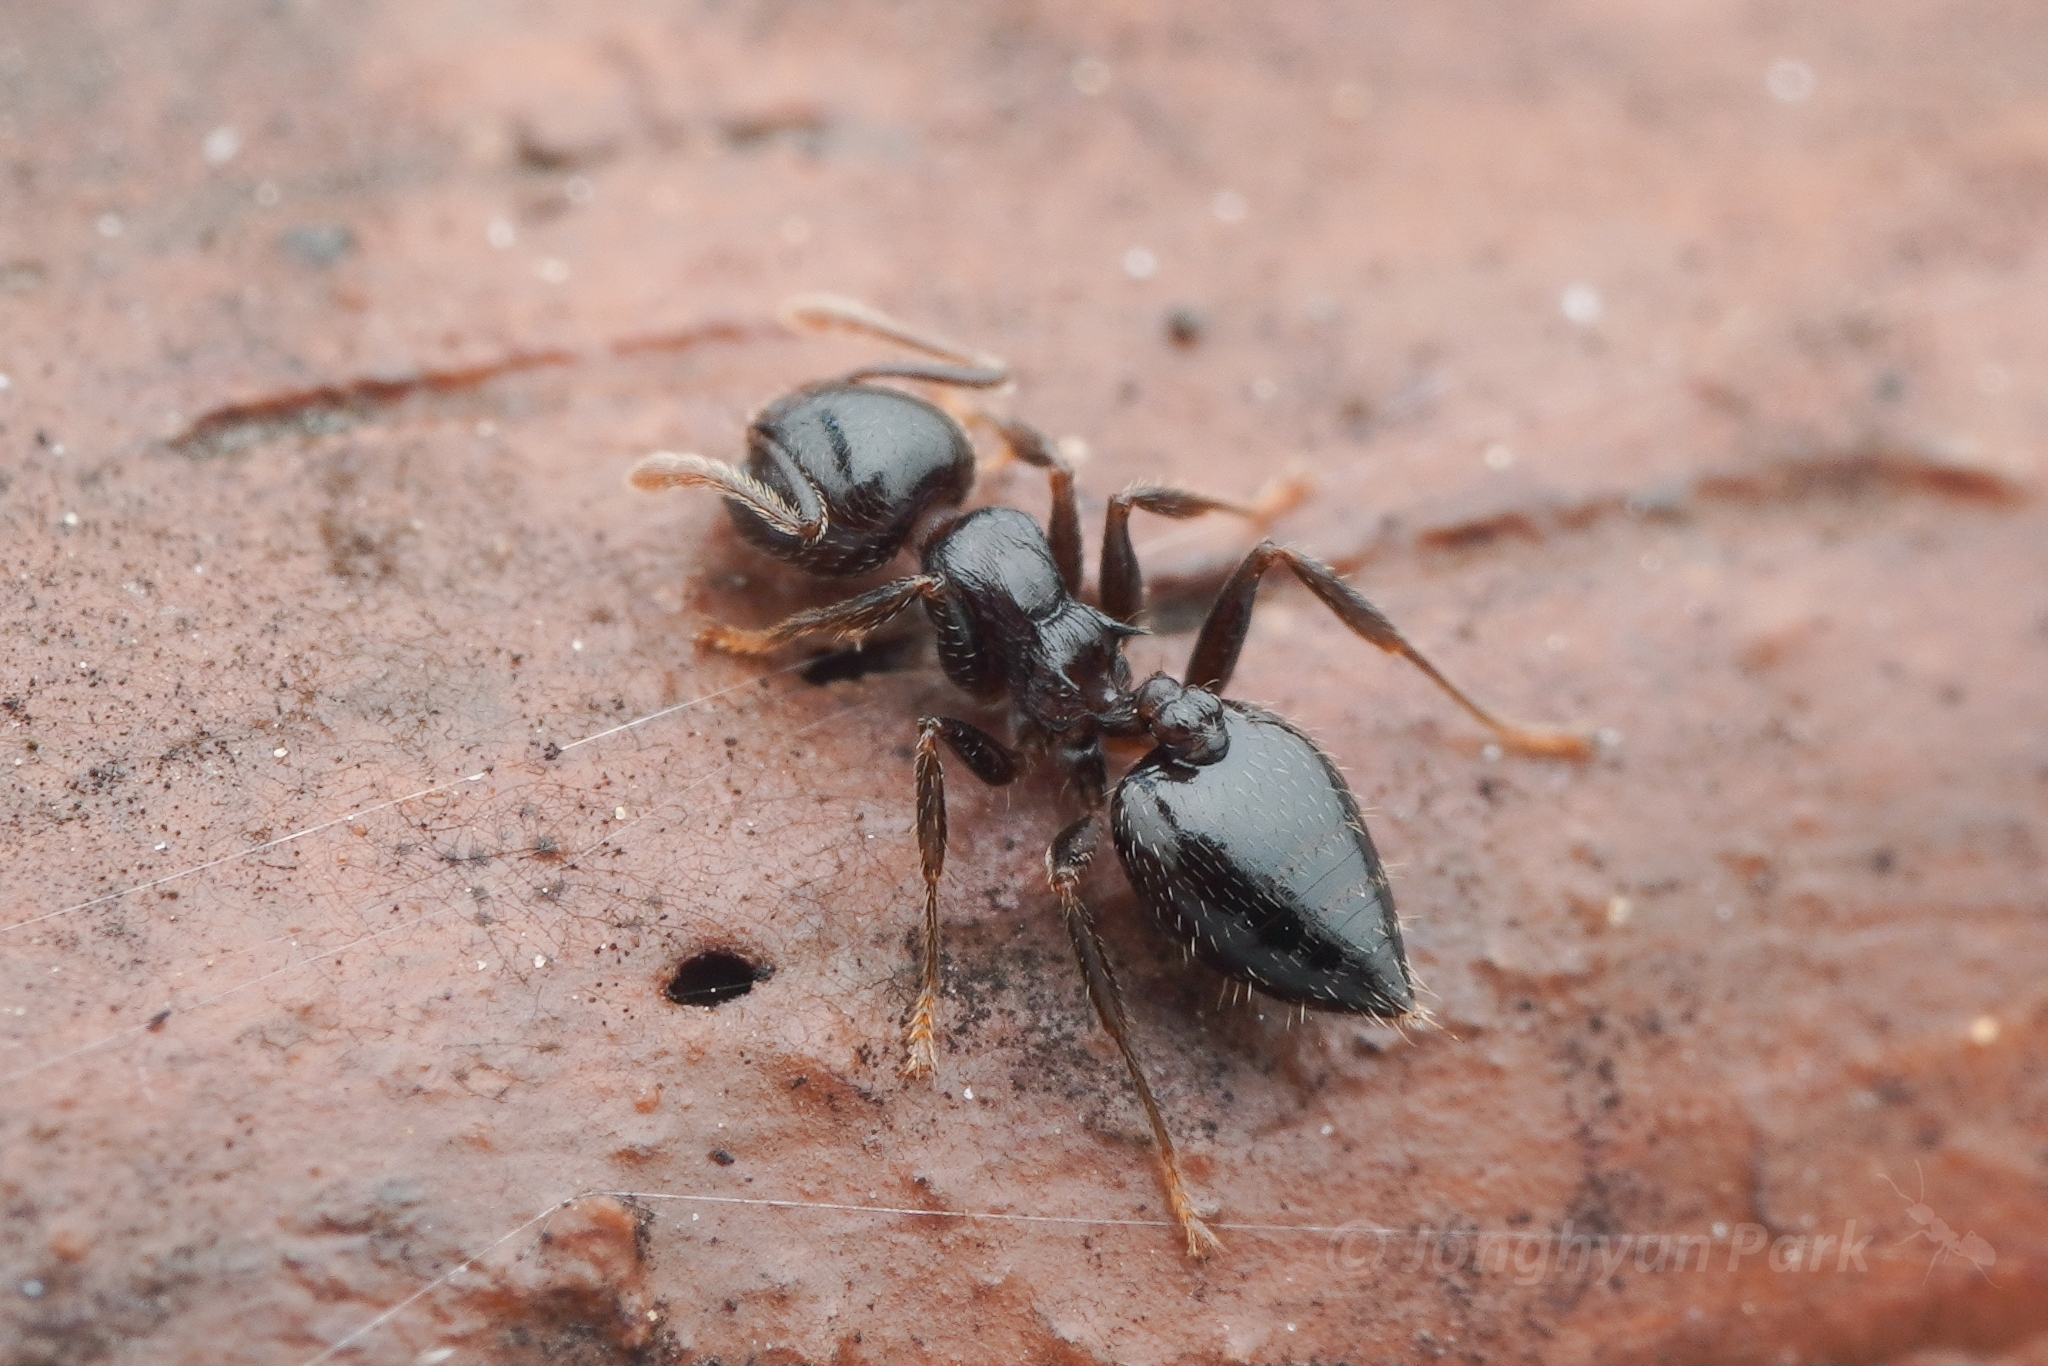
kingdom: Animalia
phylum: Arthropoda
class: Insecta
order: Hymenoptera
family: Formicidae
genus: Crematogaster
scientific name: Crematogaster teranishii
